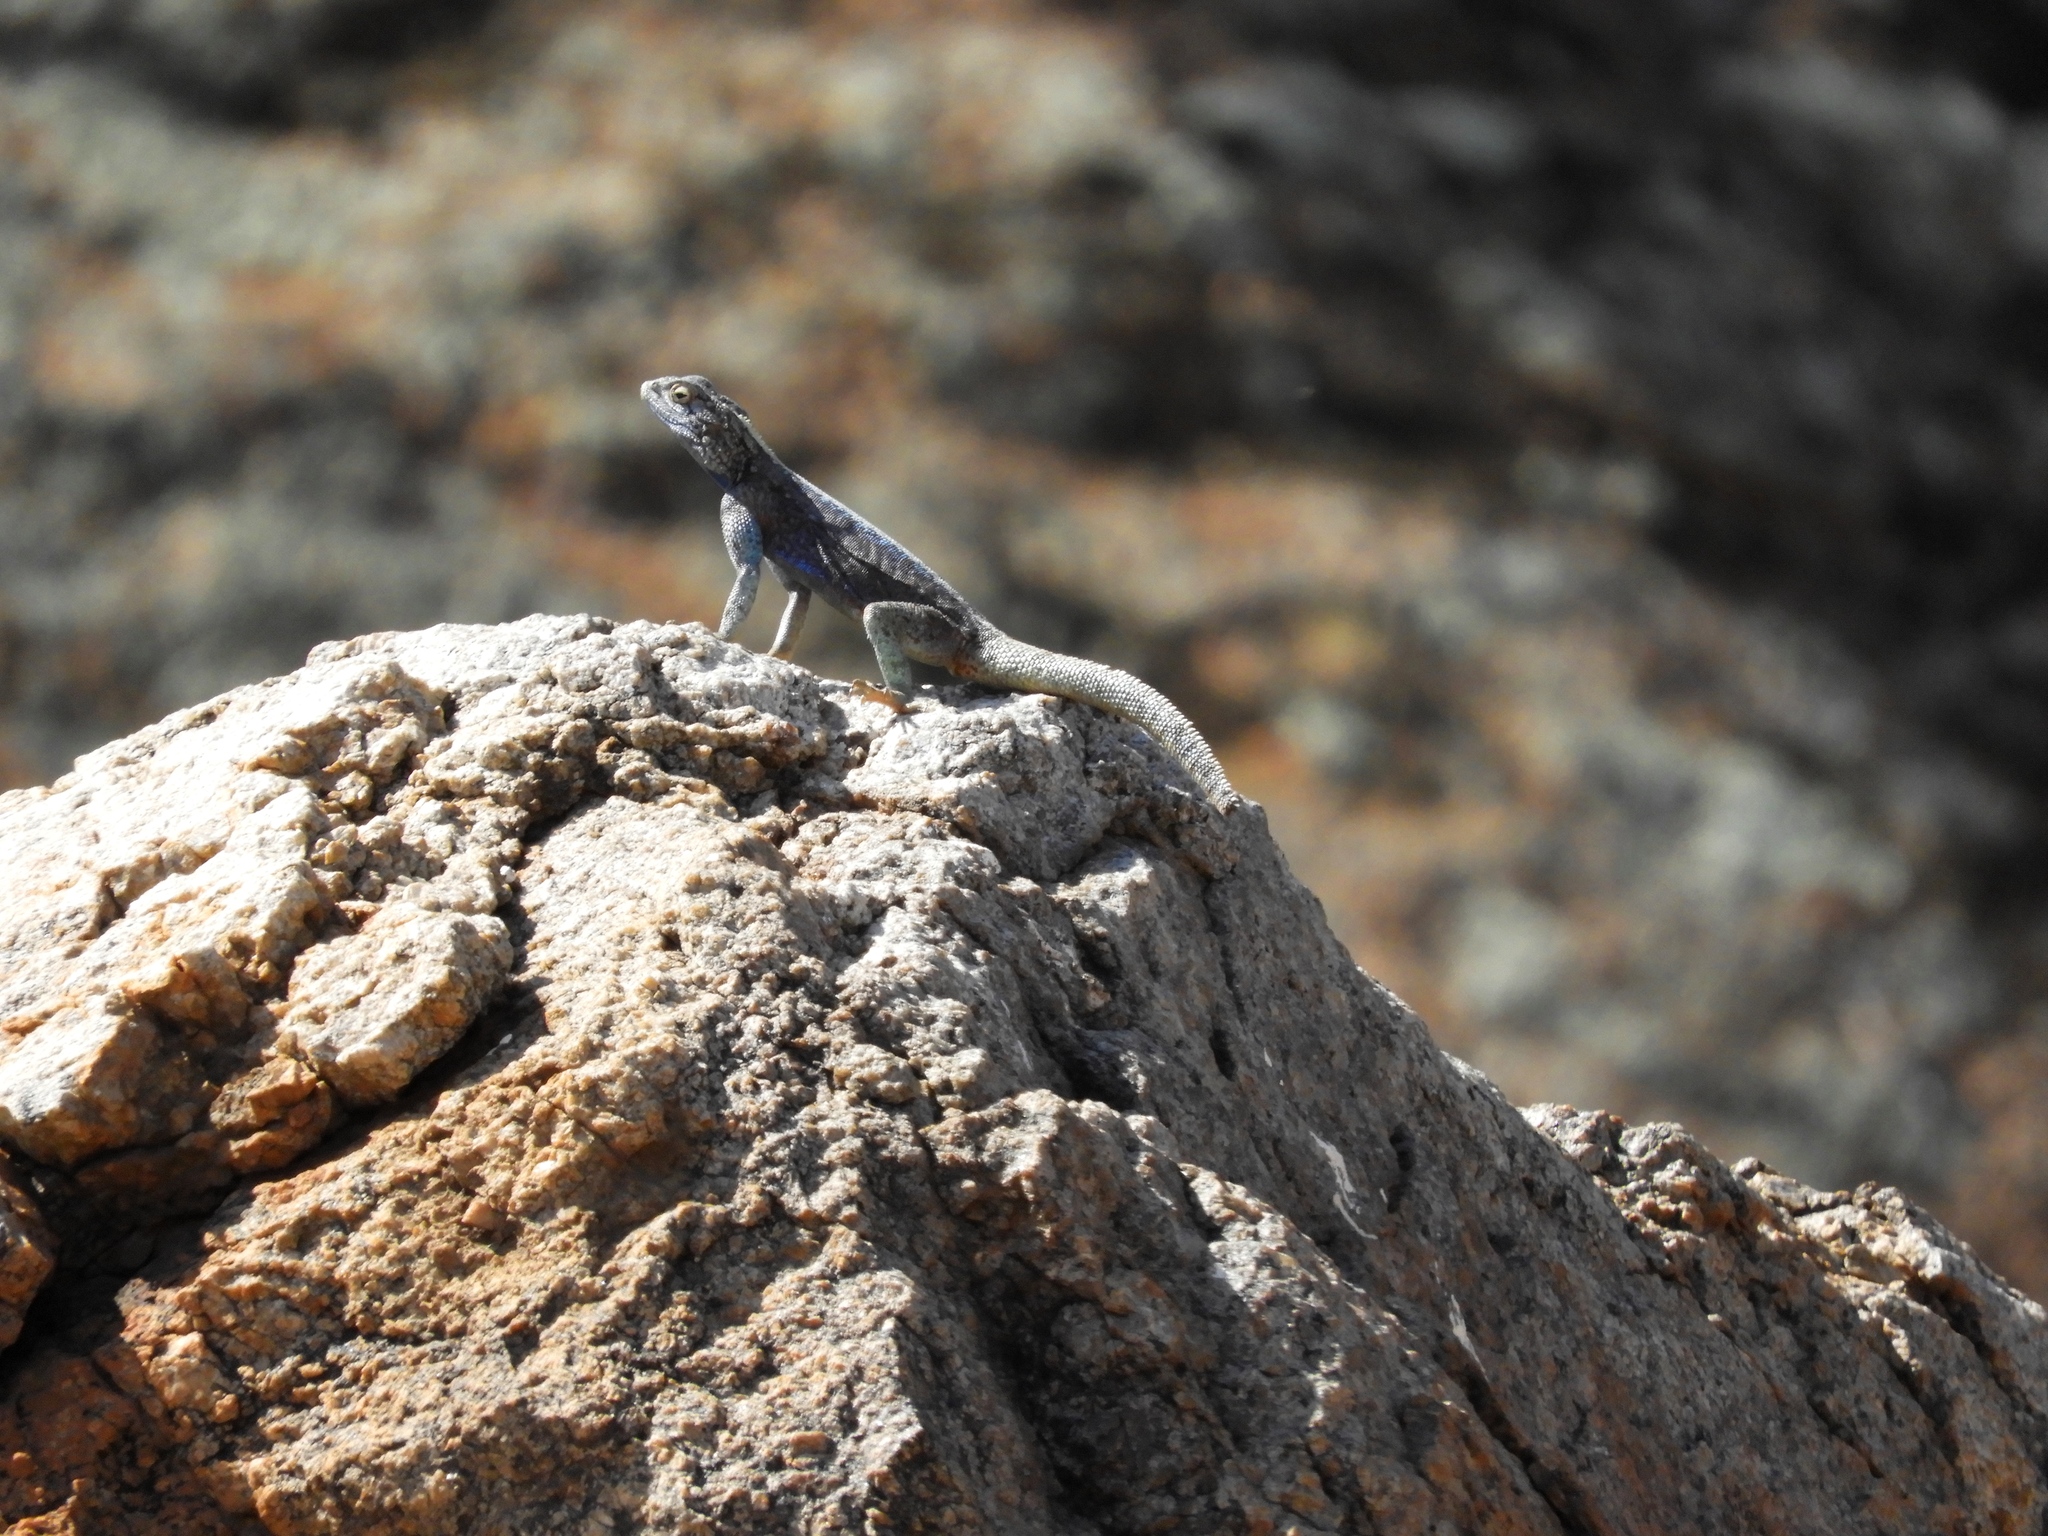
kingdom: Animalia
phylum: Chordata
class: Squamata
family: Agamidae
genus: Agama
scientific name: Agama atra
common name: Southern african rock agama
